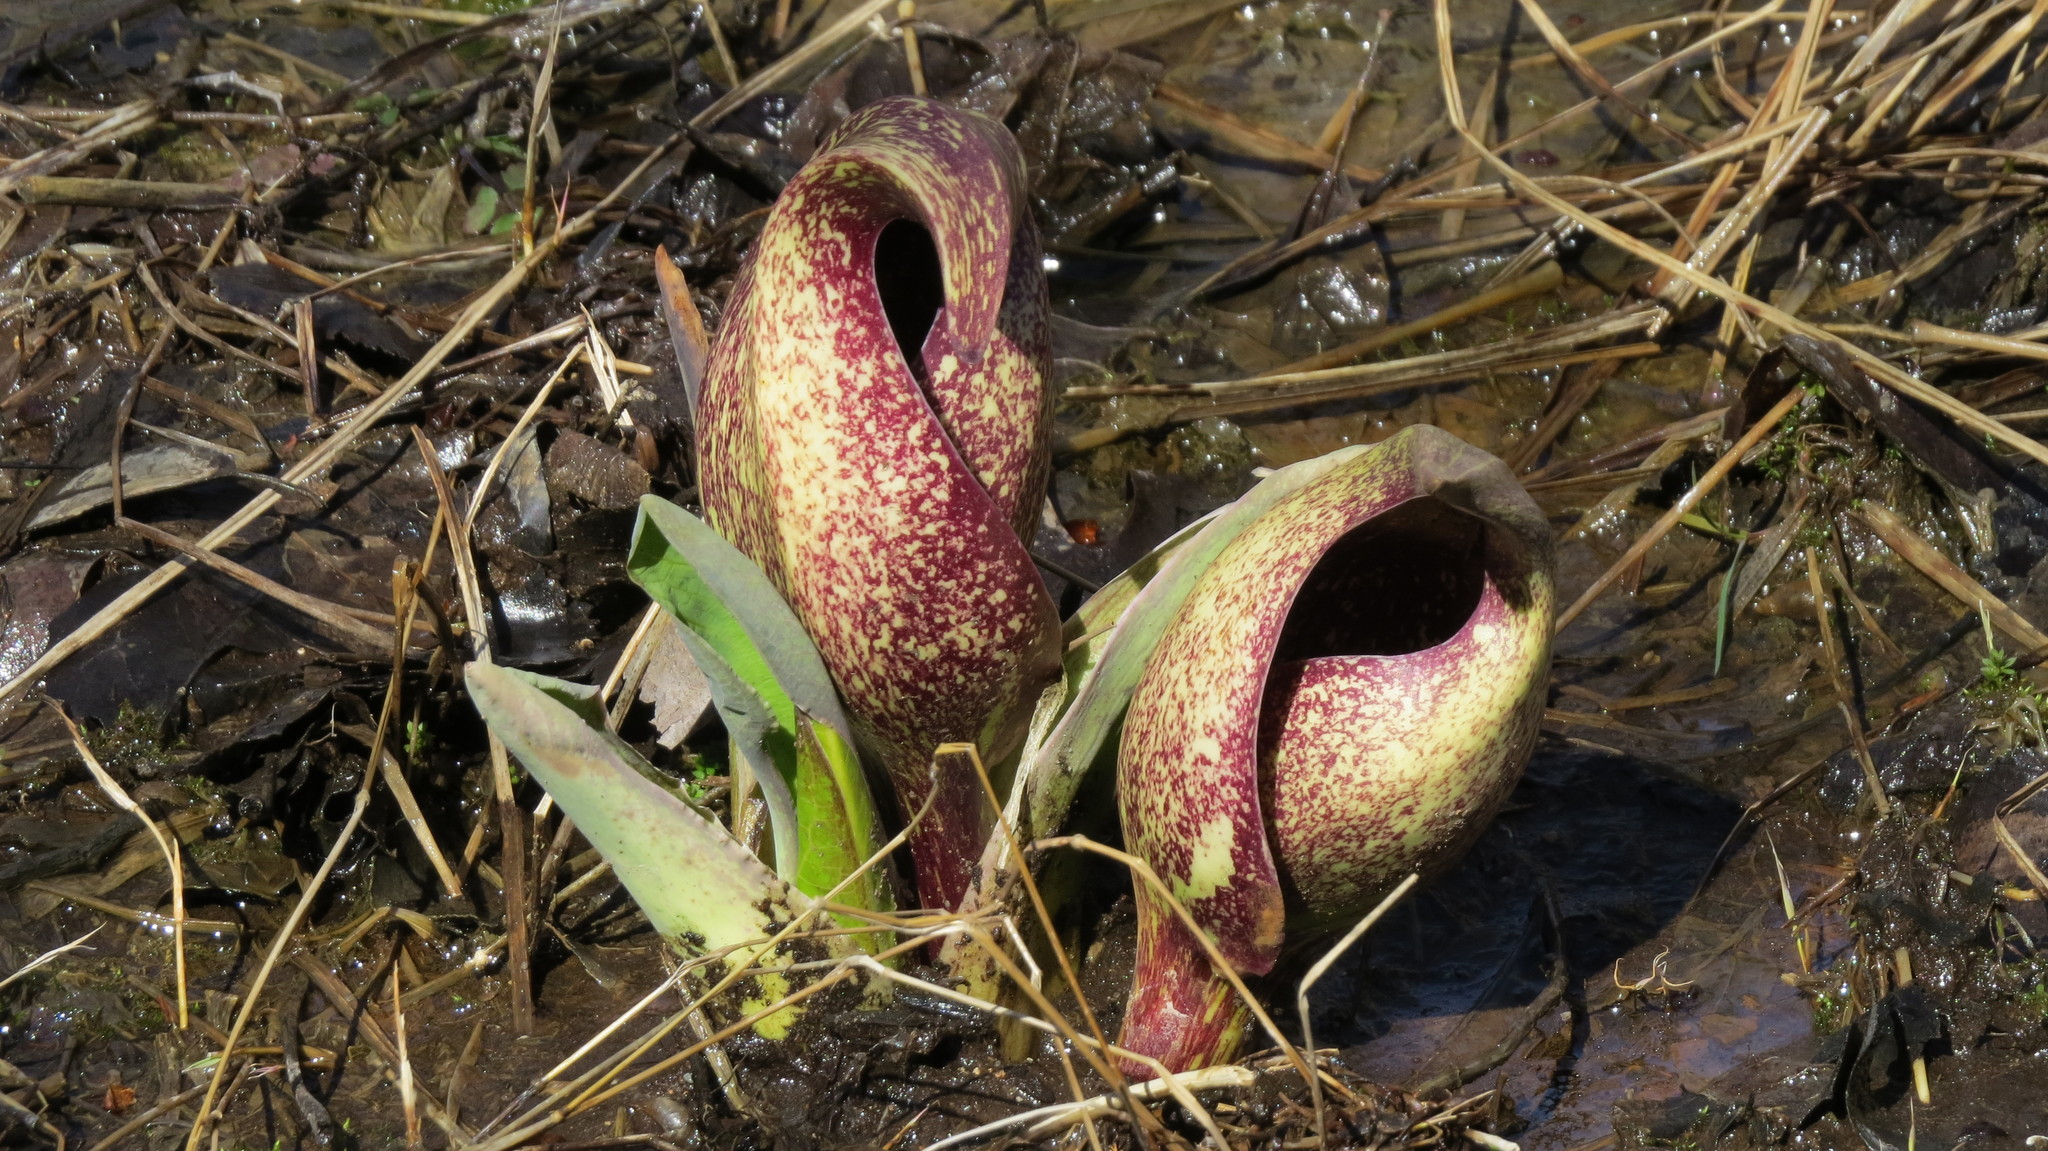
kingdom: Plantae
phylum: Tracheophyta
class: Liliopsida
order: Alismatales
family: Araceae
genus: Symplocarpus
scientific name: Symplocarpus foetidus
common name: Eastern skunk cabbage
